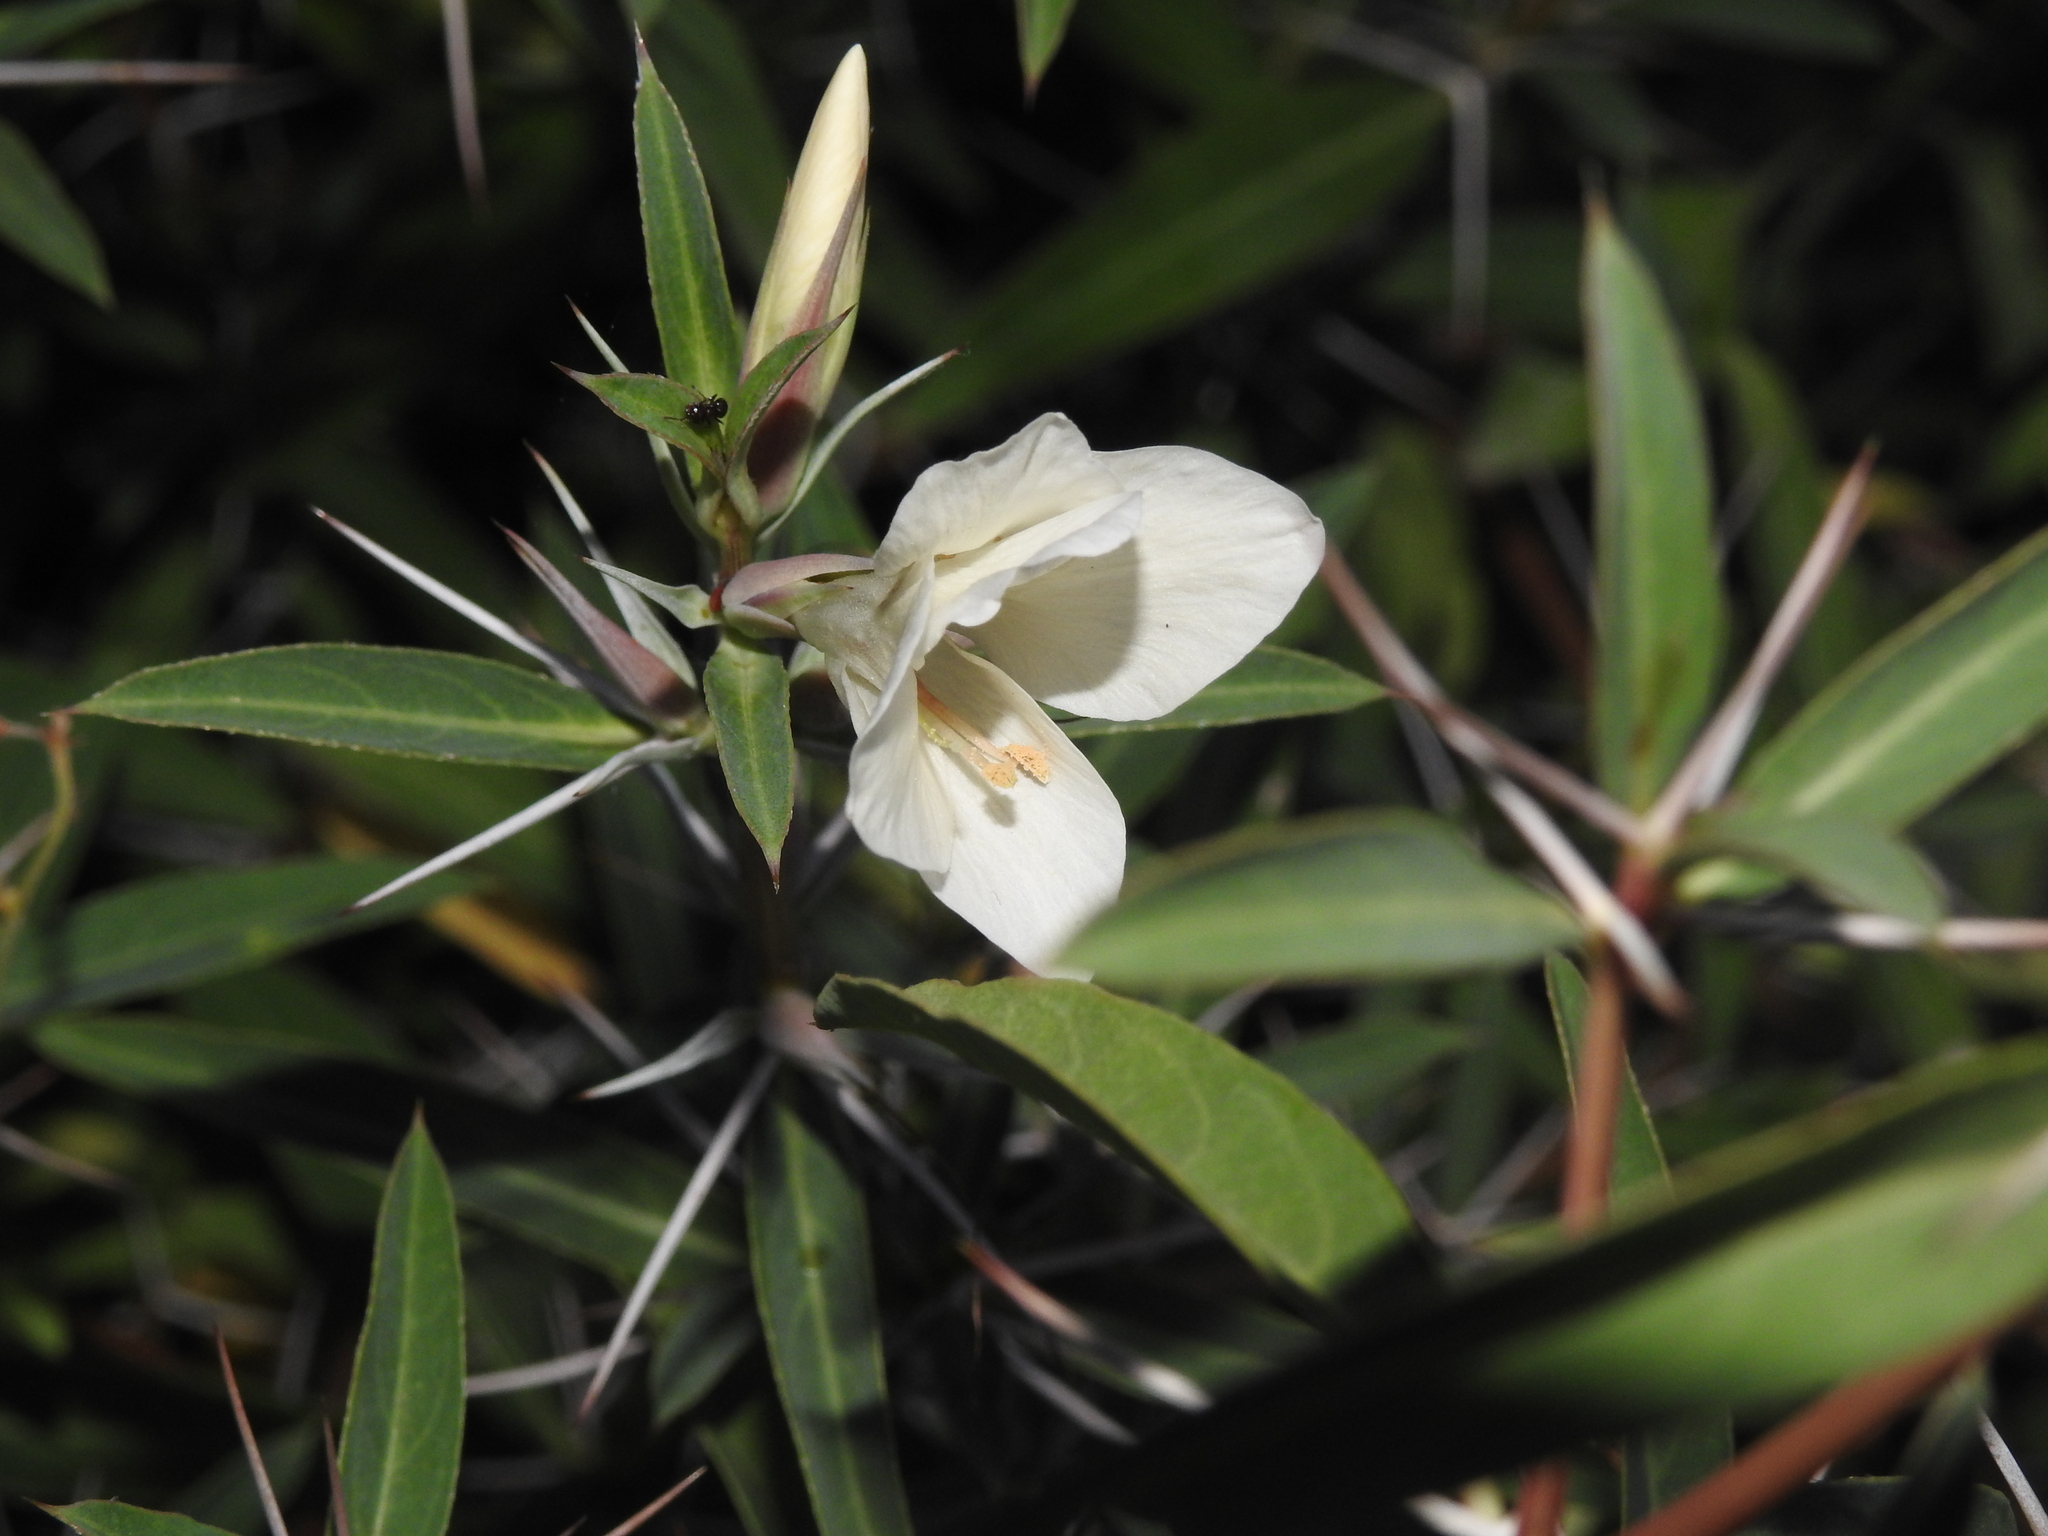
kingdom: Plantae
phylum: Tracheophyta
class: Magnoliopsida
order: Lamiales
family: Acanthaceae
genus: Barleria
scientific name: Barleria cuspidata
